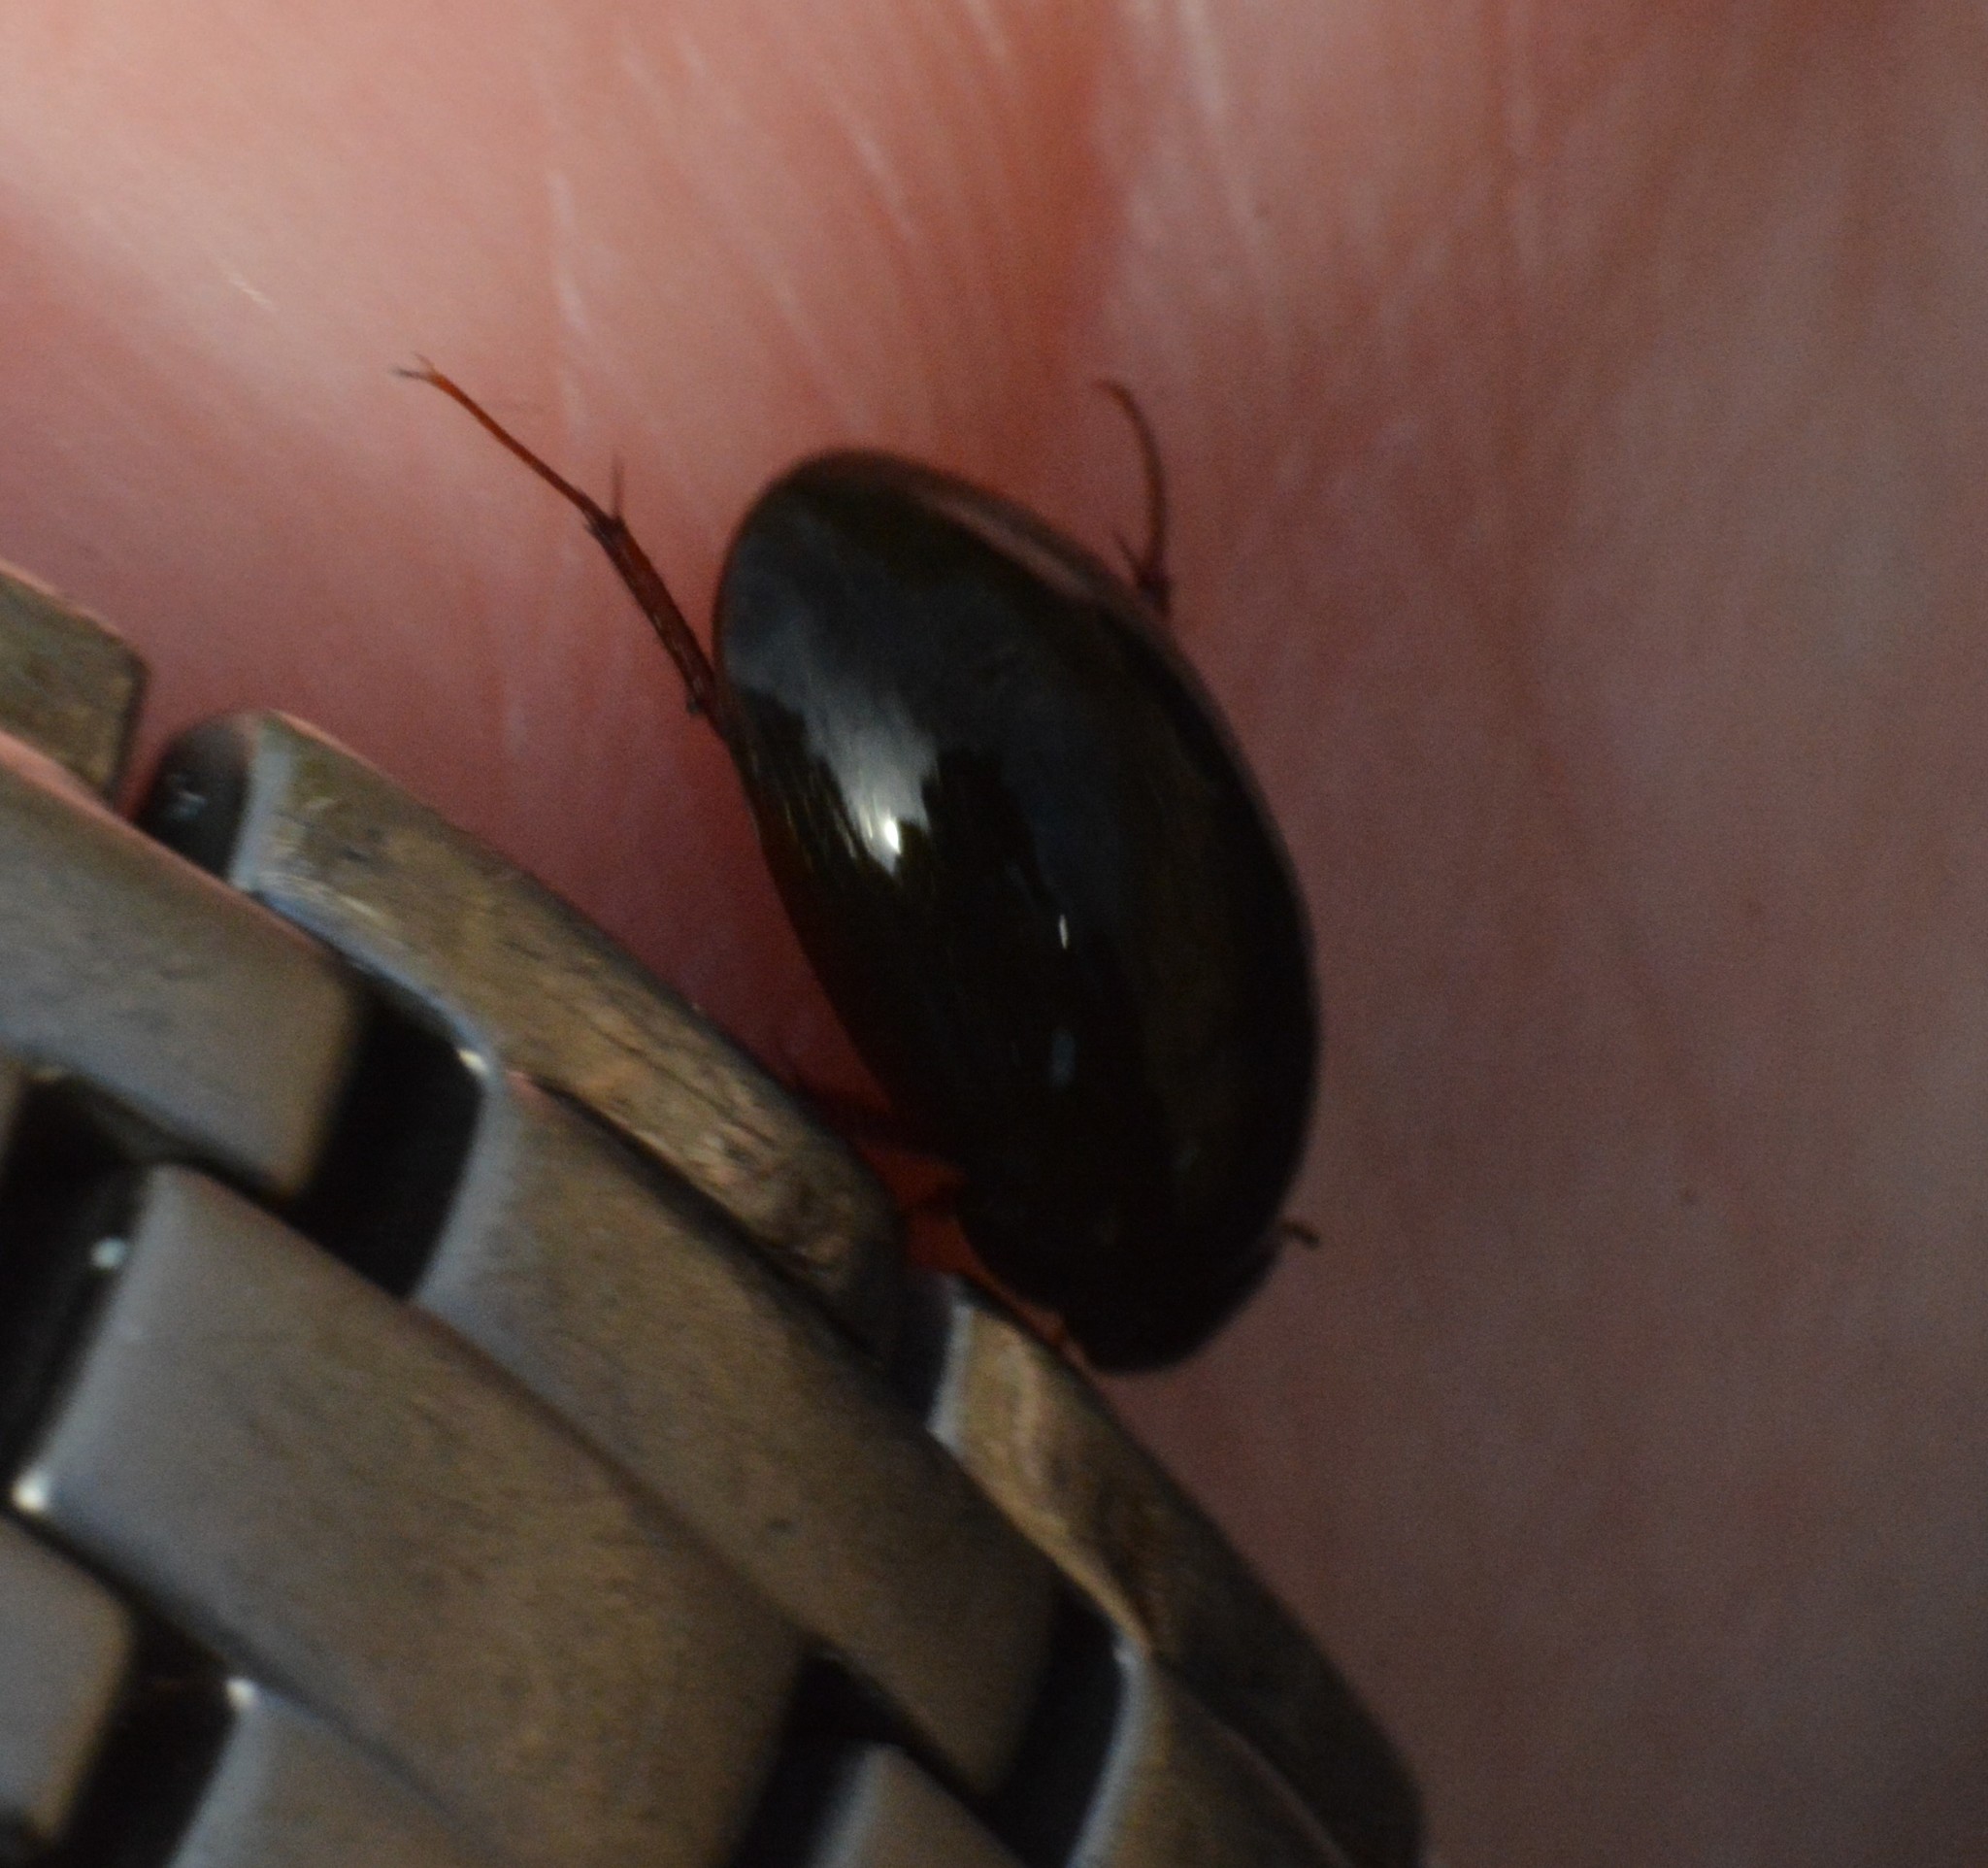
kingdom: Animalia
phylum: Arthropoda
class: Insecta
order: Coleoptera
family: Hydrophilidae
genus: Hydrobius
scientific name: Hydrobius fuscipes
